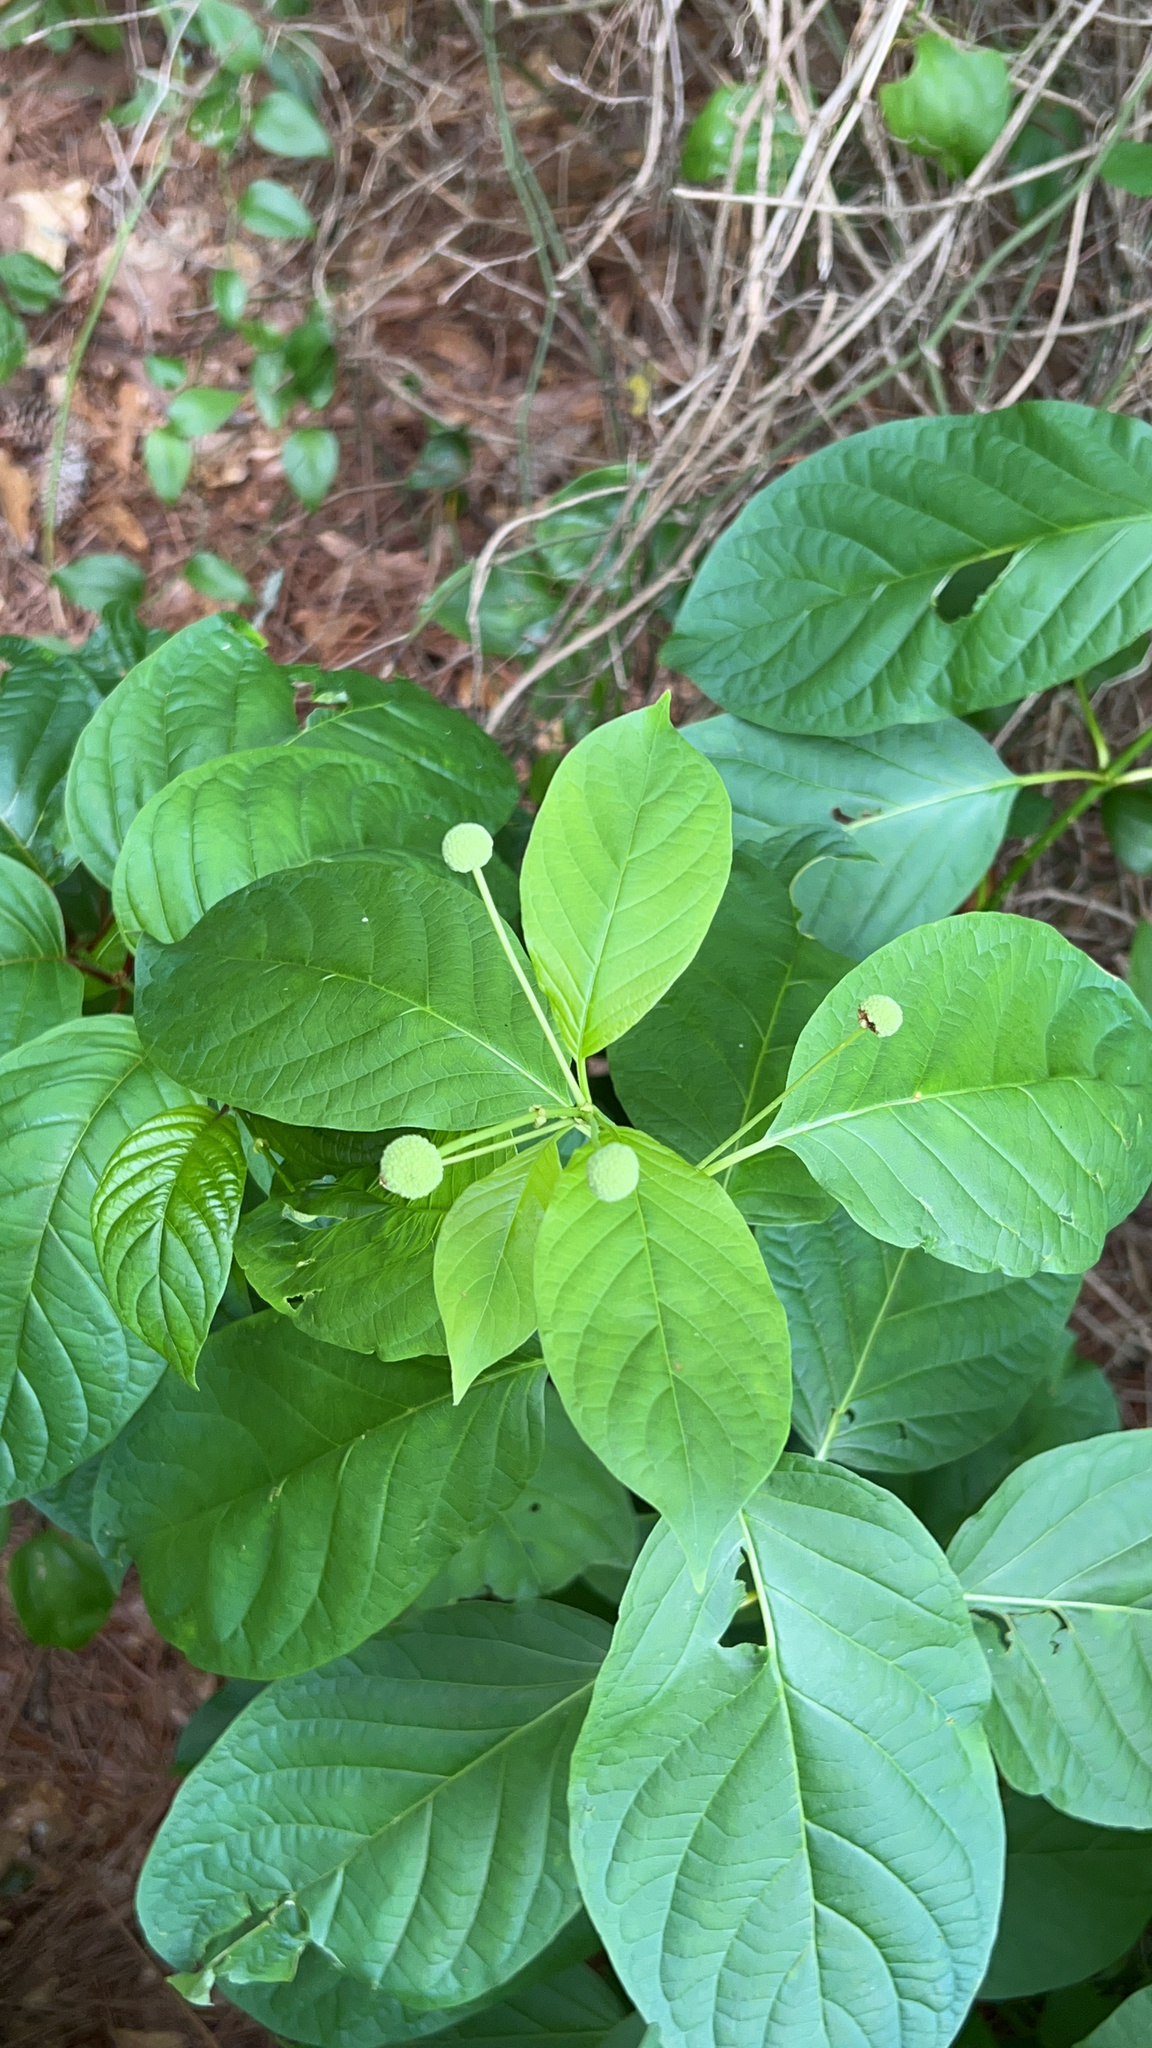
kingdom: Plantae
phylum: Tracheophyta
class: Magnoliopsida
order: Gentianales
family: Rubiaceae
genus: Cephalanthus
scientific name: Cephalanthus occidentalis
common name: Button-willow
